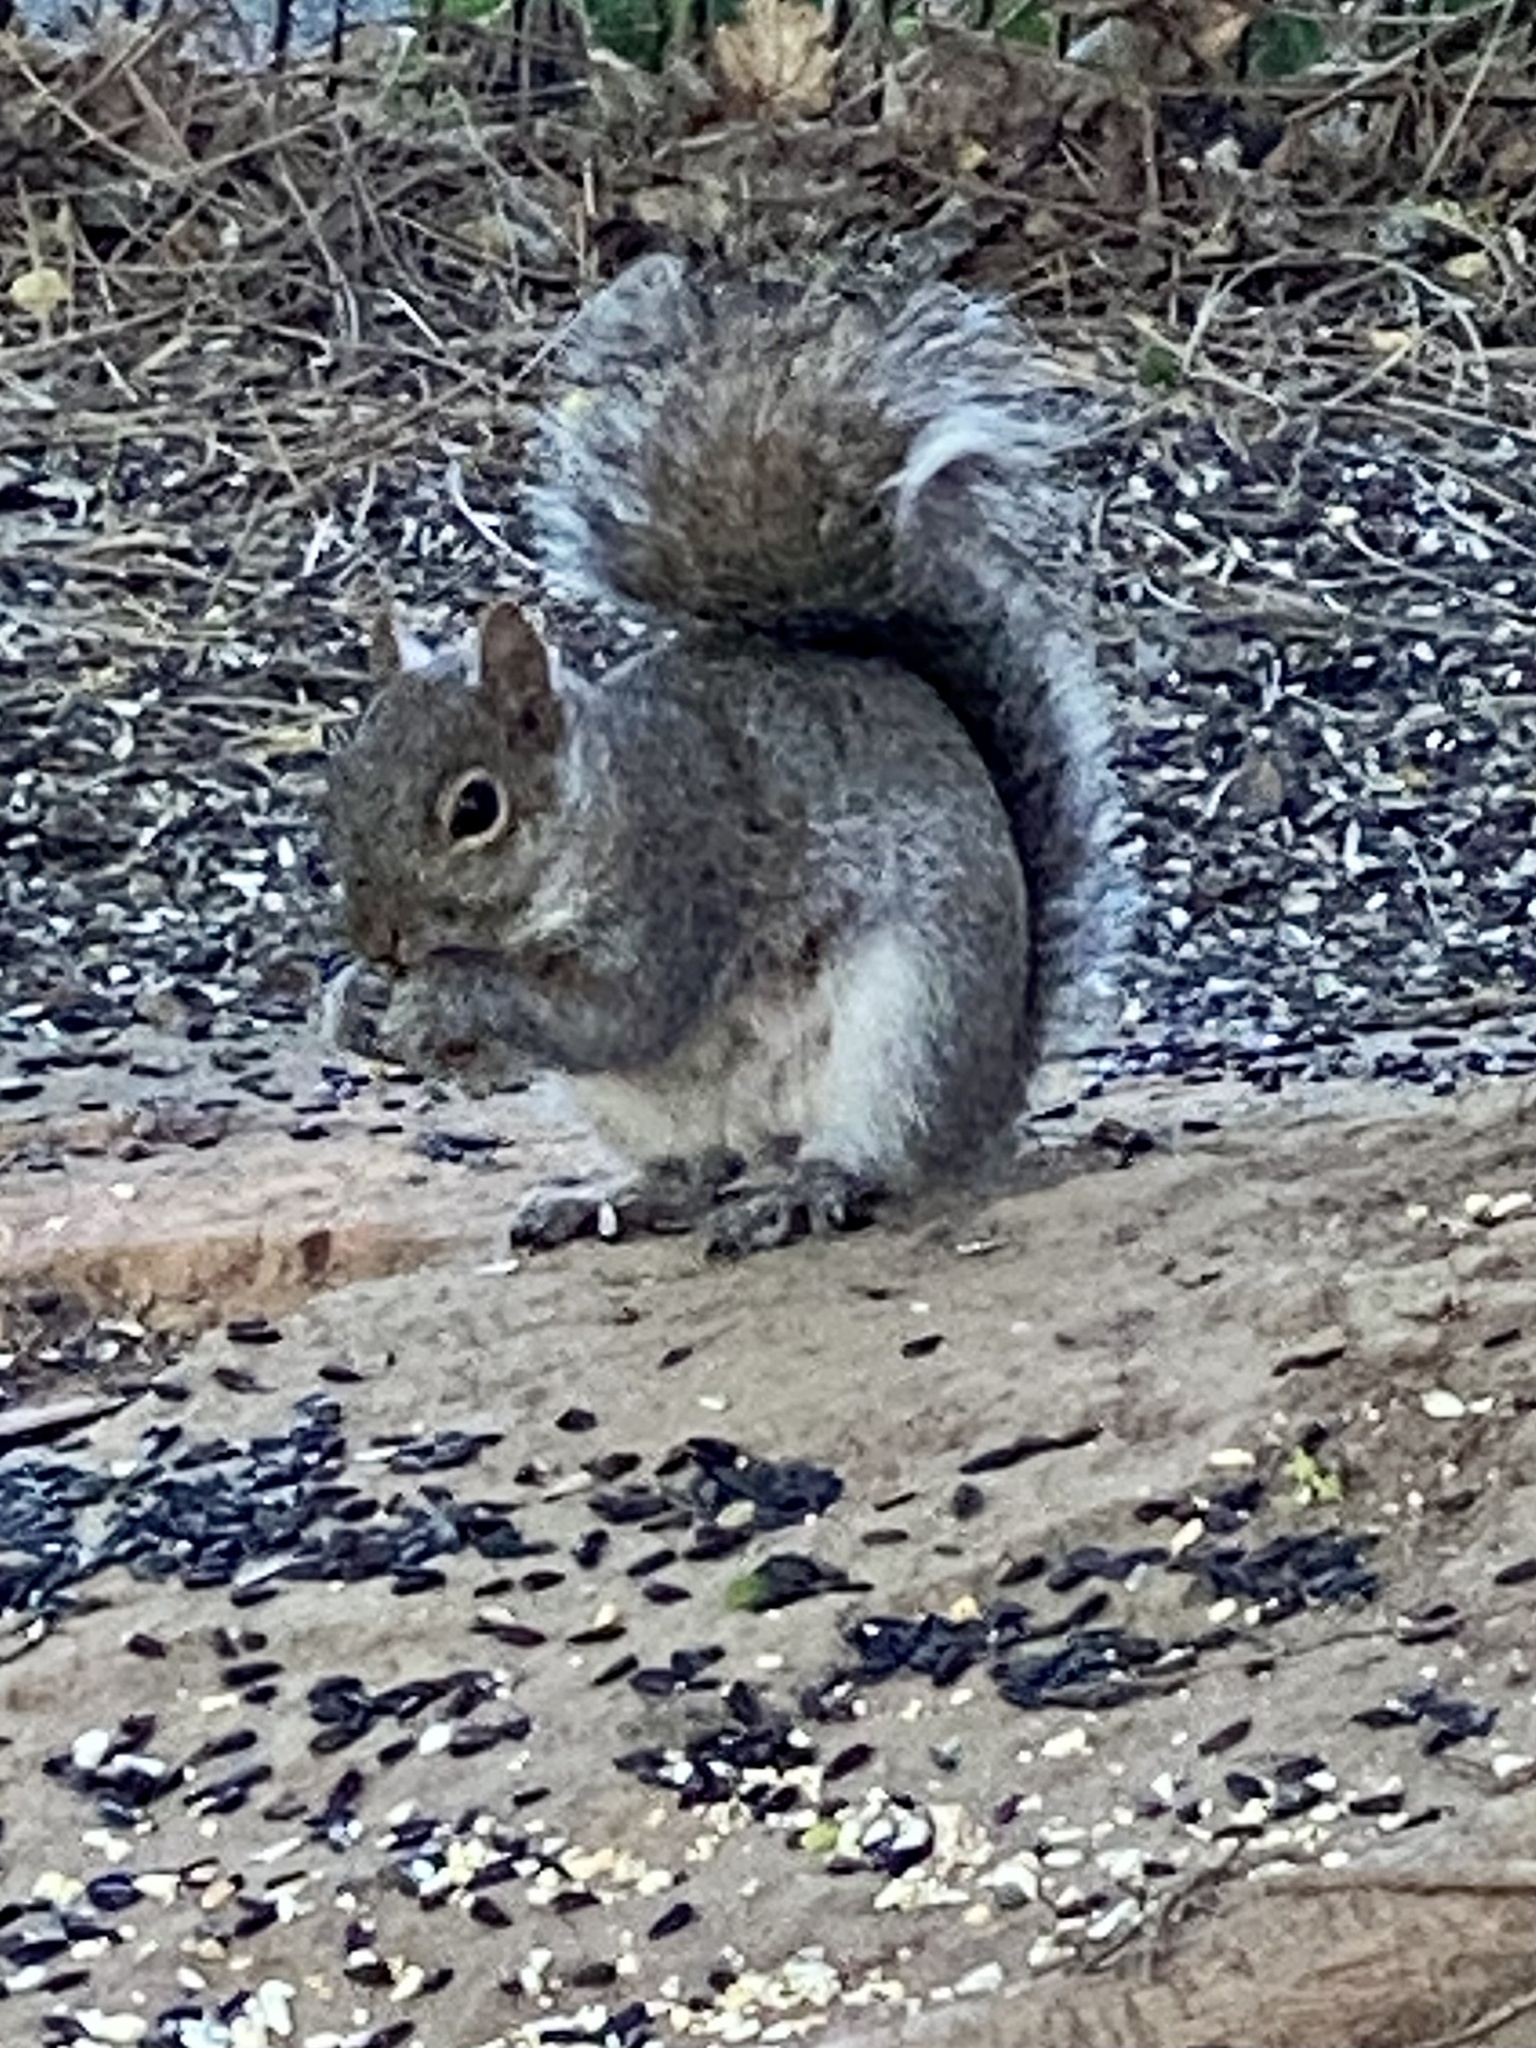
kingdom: Animalia
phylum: Chordata
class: Mammalia
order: Rodentia
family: Sciuridae
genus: Sciurus
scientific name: Sciurus carolinensis
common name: Eastern gray squirrel
